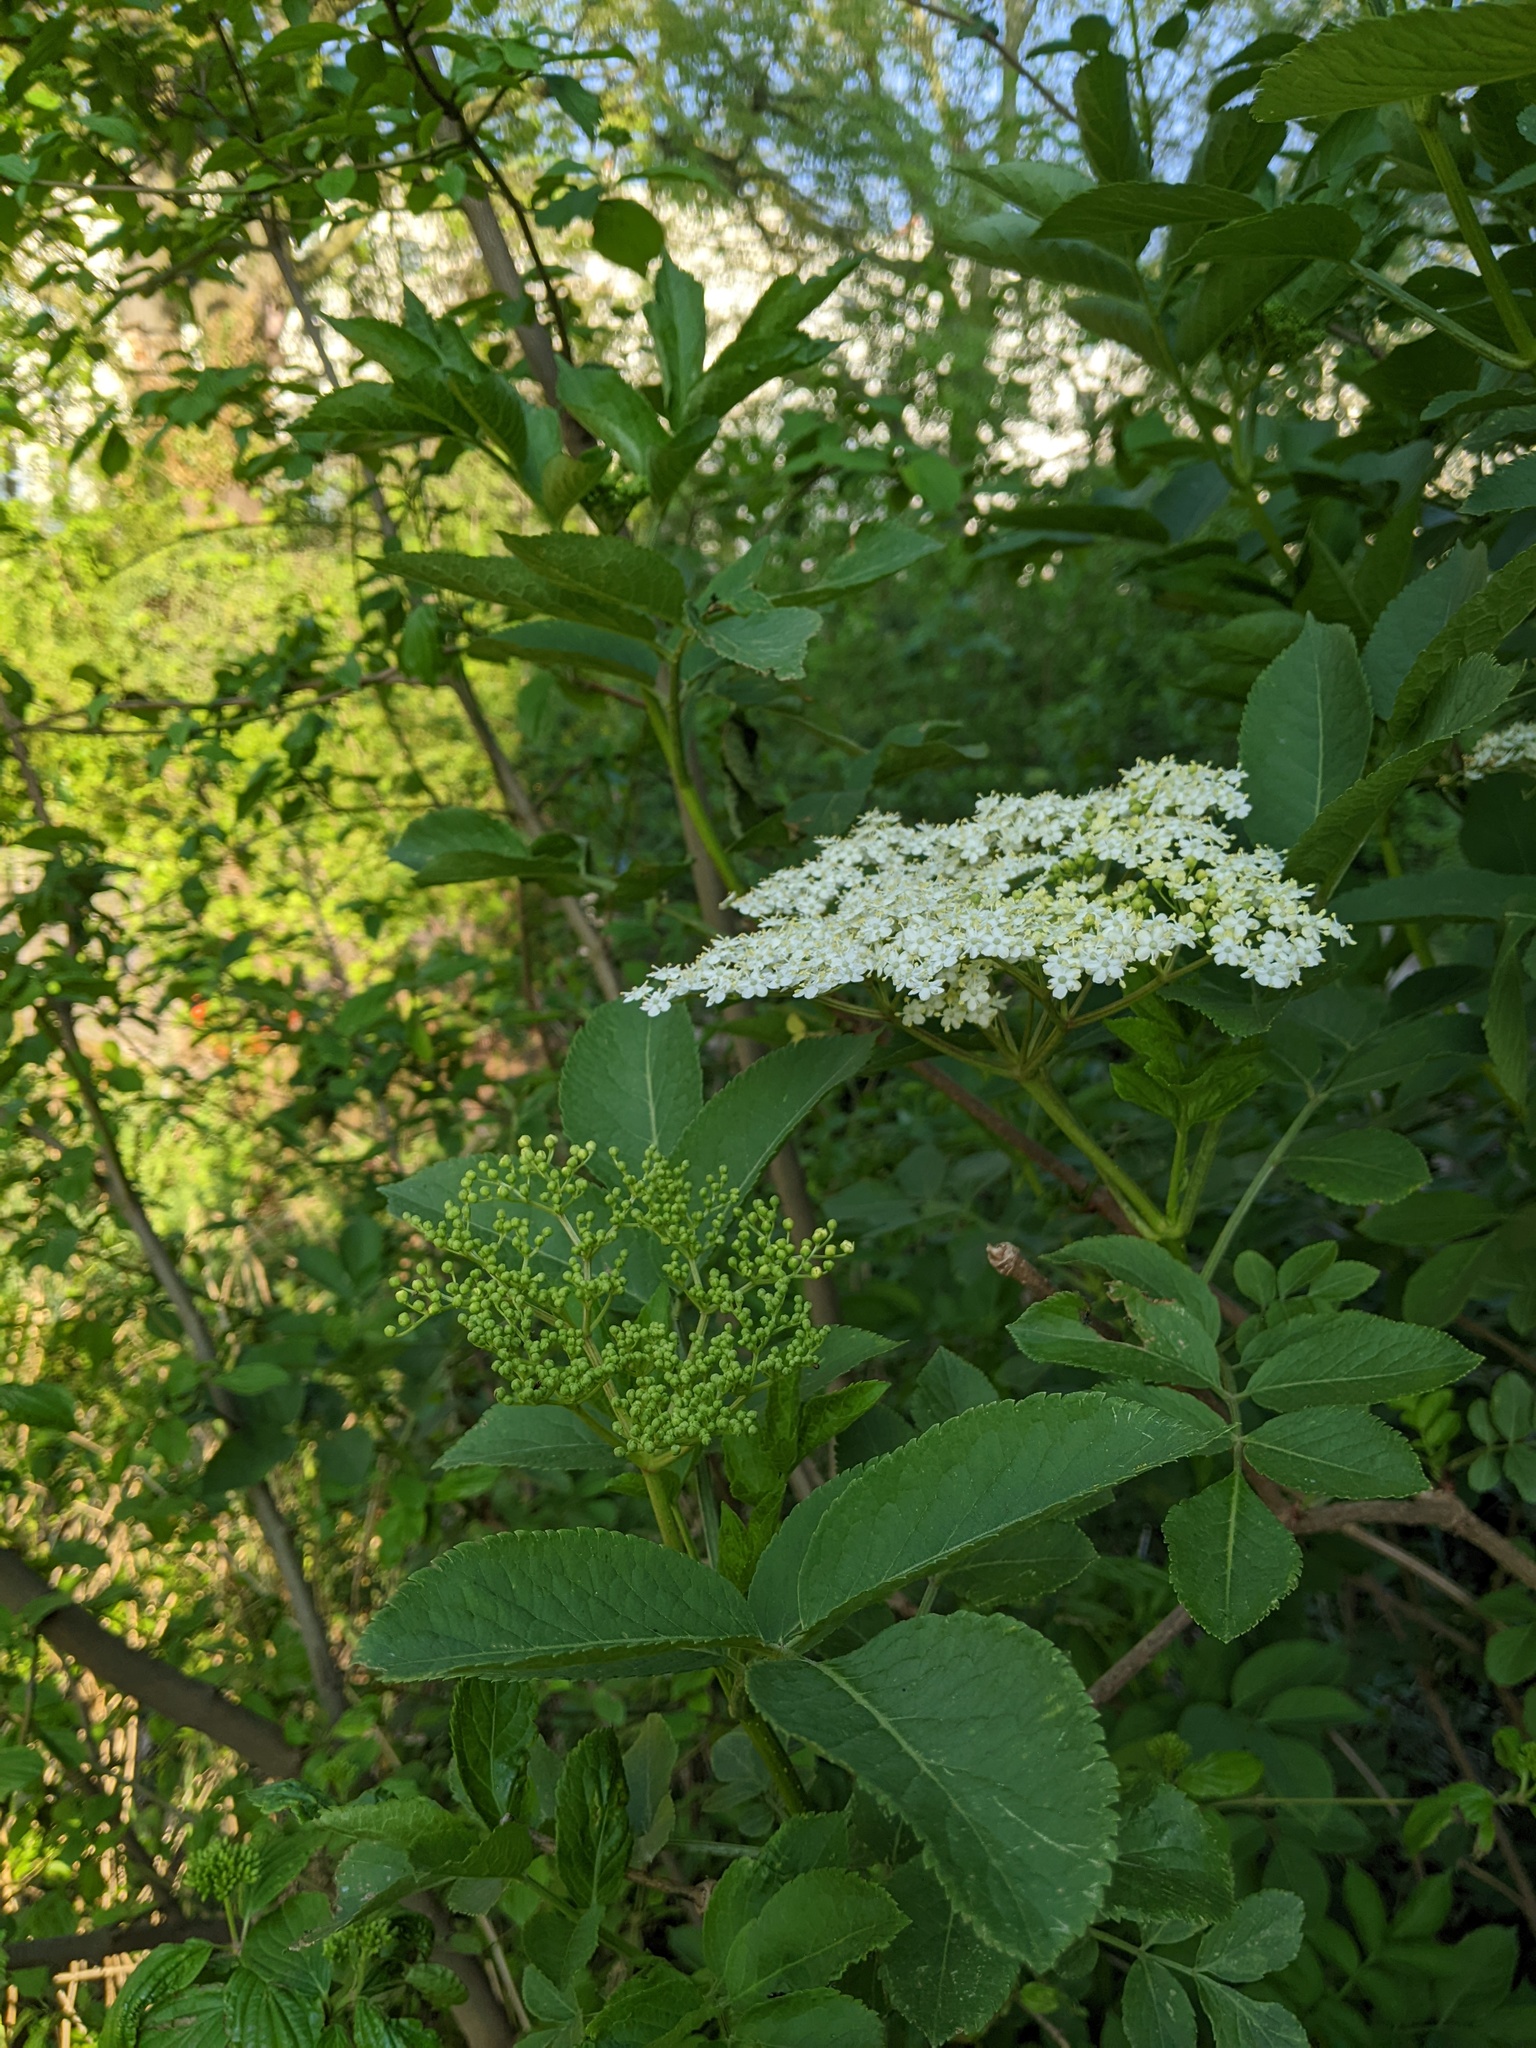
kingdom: Plantae
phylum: Tracheophyta
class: Magnoliopsida
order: Dipsacales
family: Viburnaceae
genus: Sambucus
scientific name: Sambucus nigra
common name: Elder
